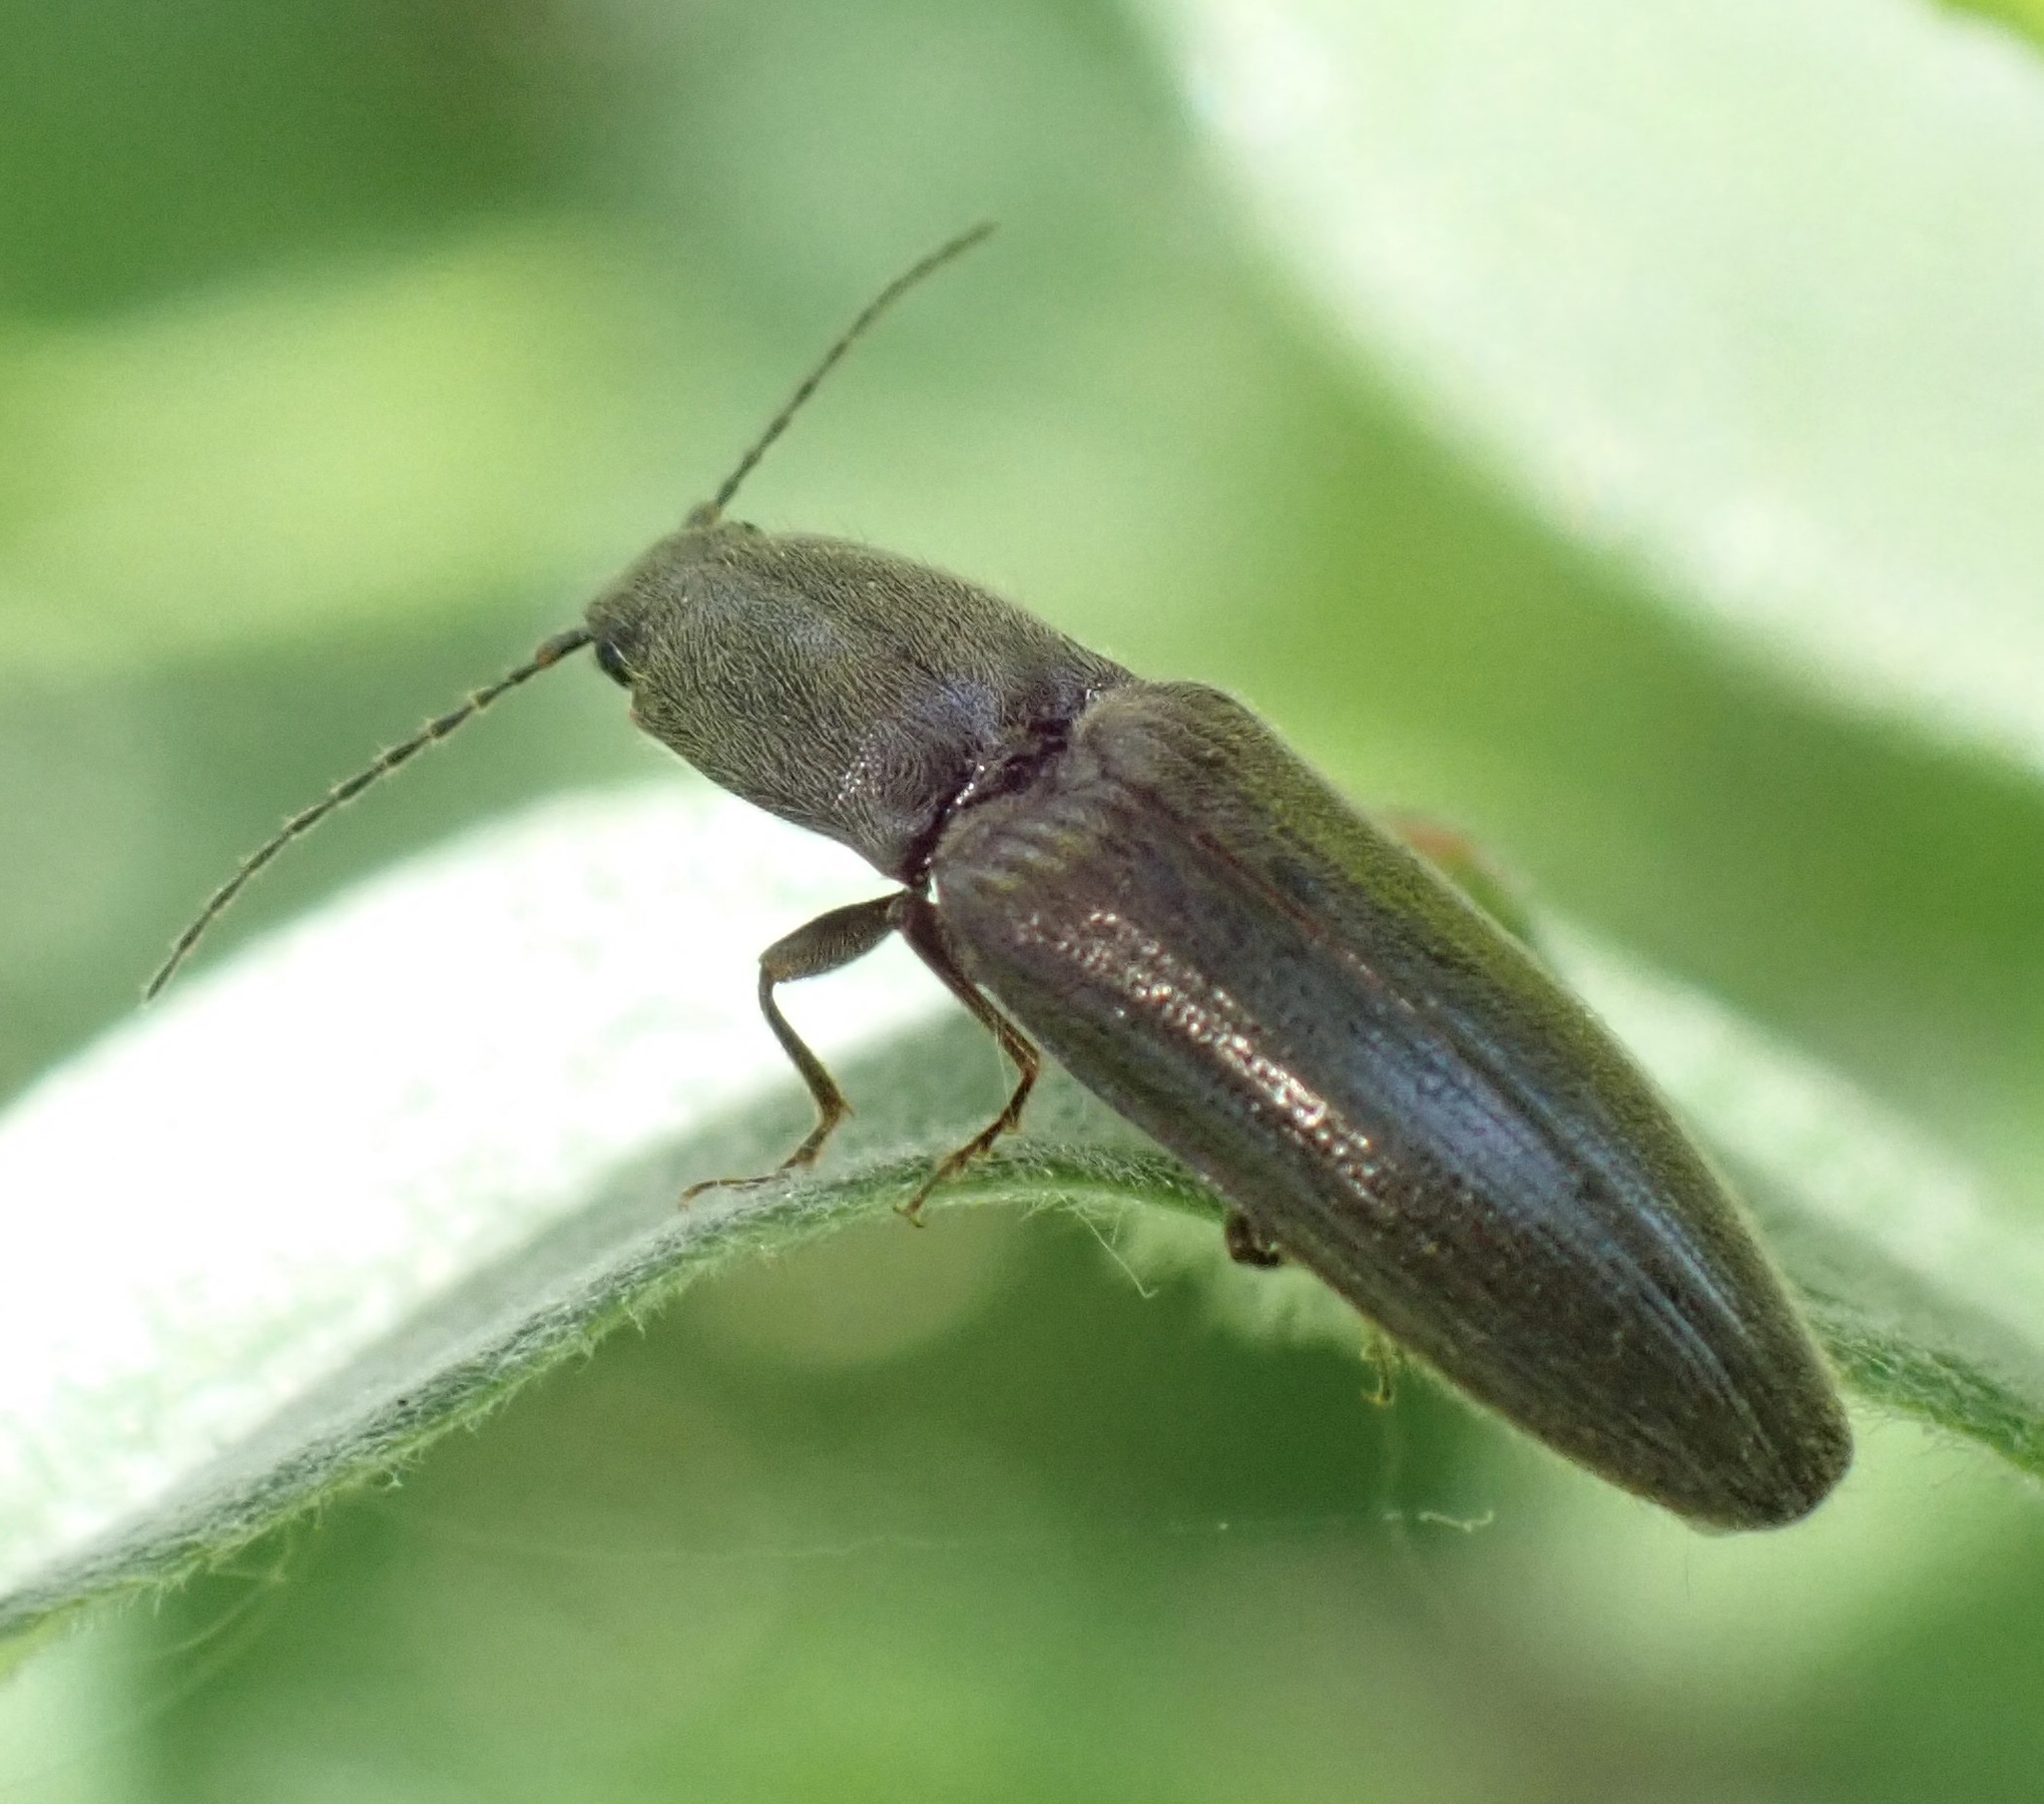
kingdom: Animalia
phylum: Arthropoda
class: Insecta
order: Coleoptera
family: Elateridae
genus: Athous
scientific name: Athous haemorrhoidalis
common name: Red-brown click beetle
